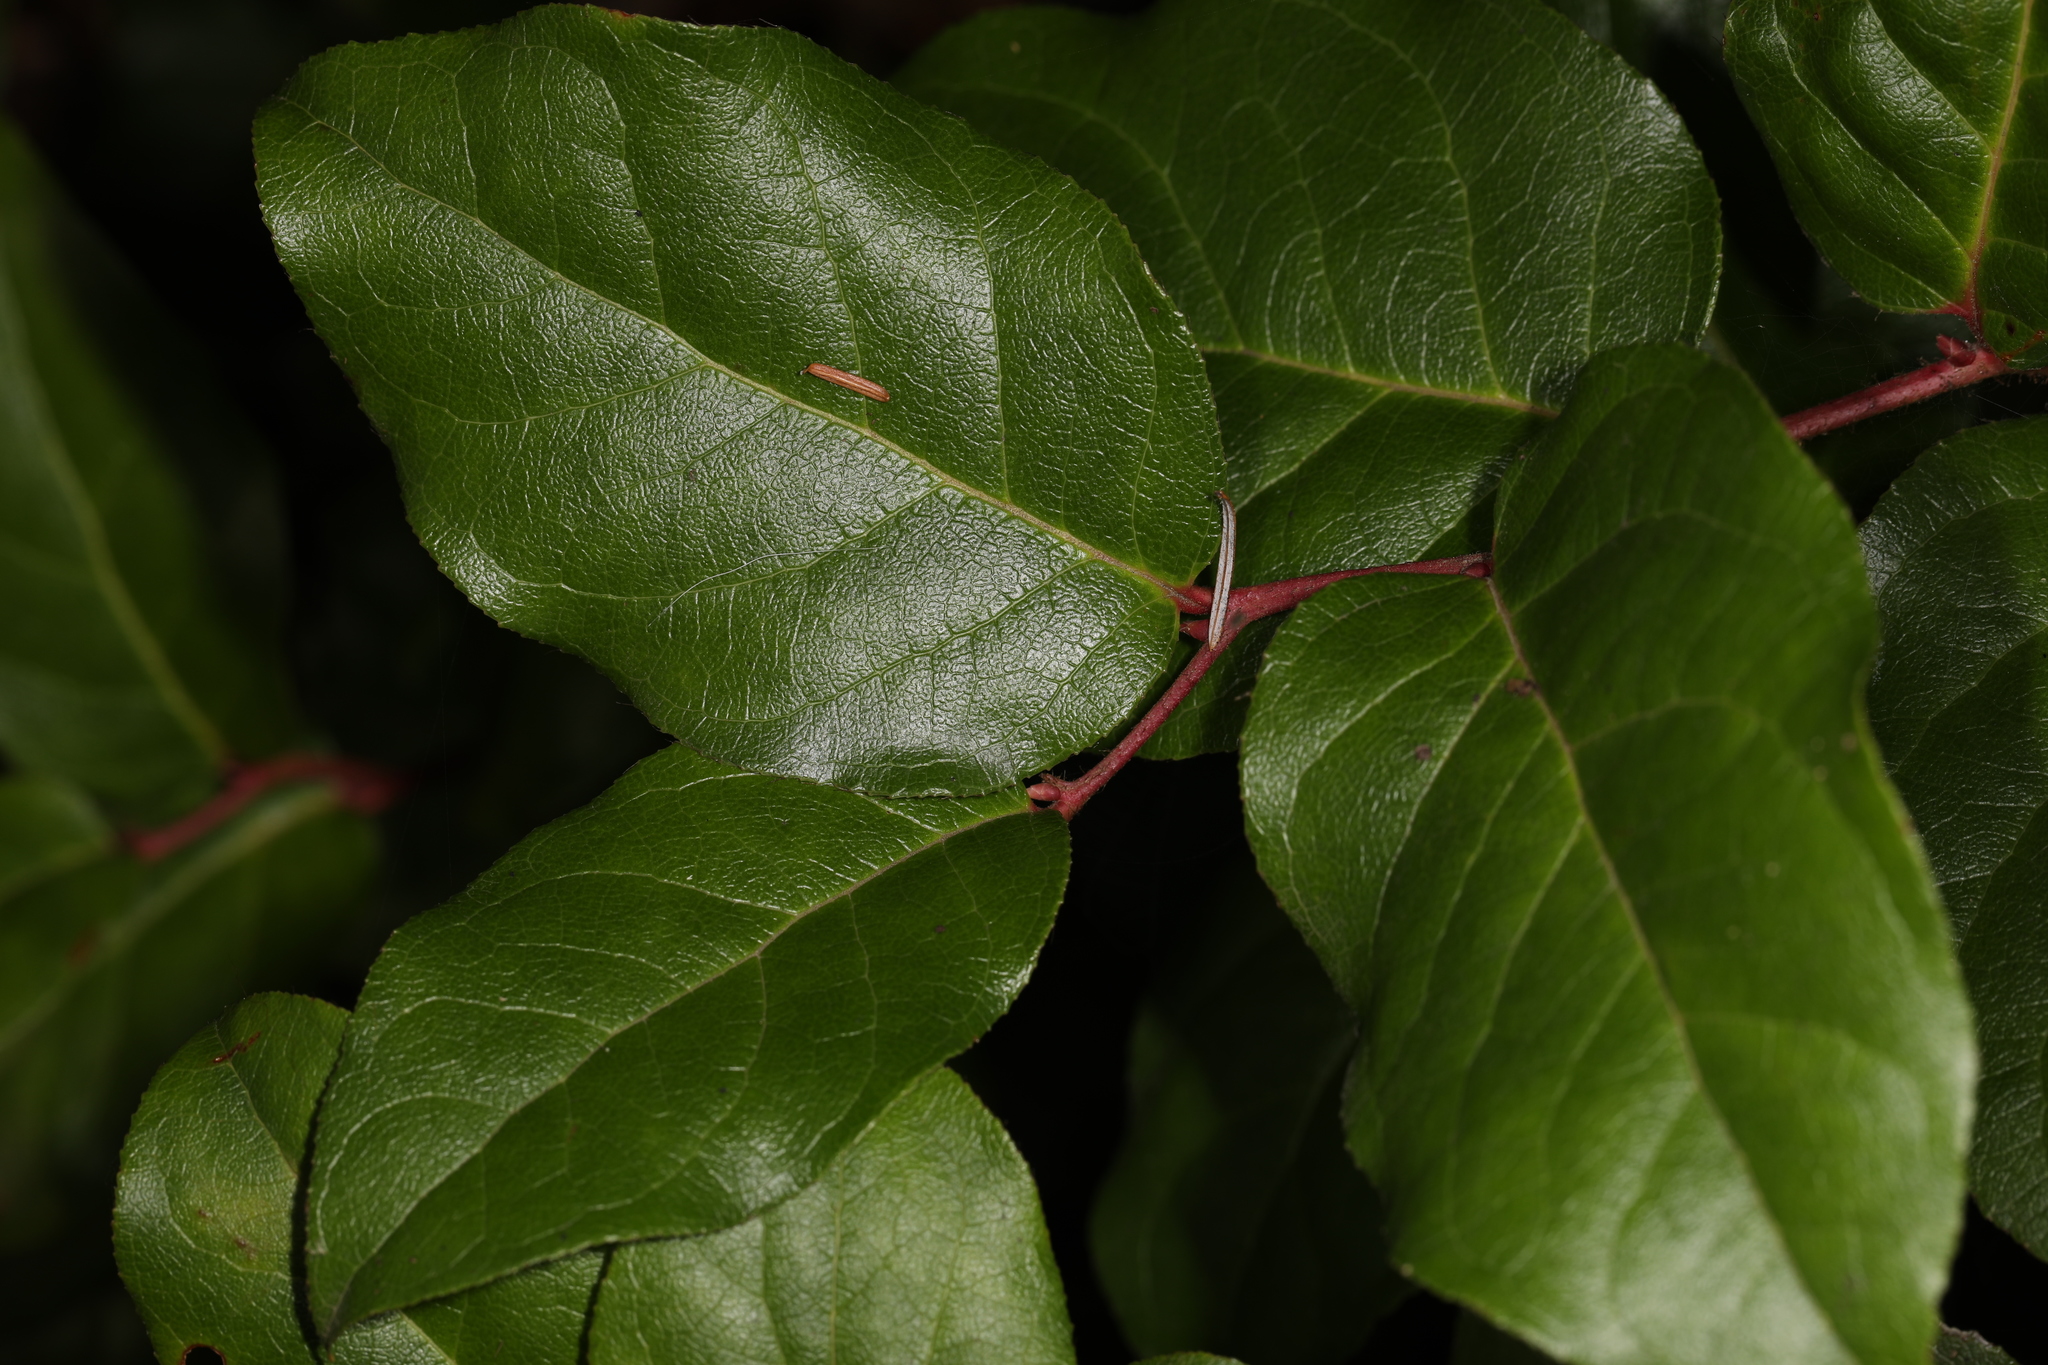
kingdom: Plantae
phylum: Tracheophyta
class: Magnoliopsida
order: Ericales
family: Ericaceae
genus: Gaultheria
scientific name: Gaultheria shallon
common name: Shallon
